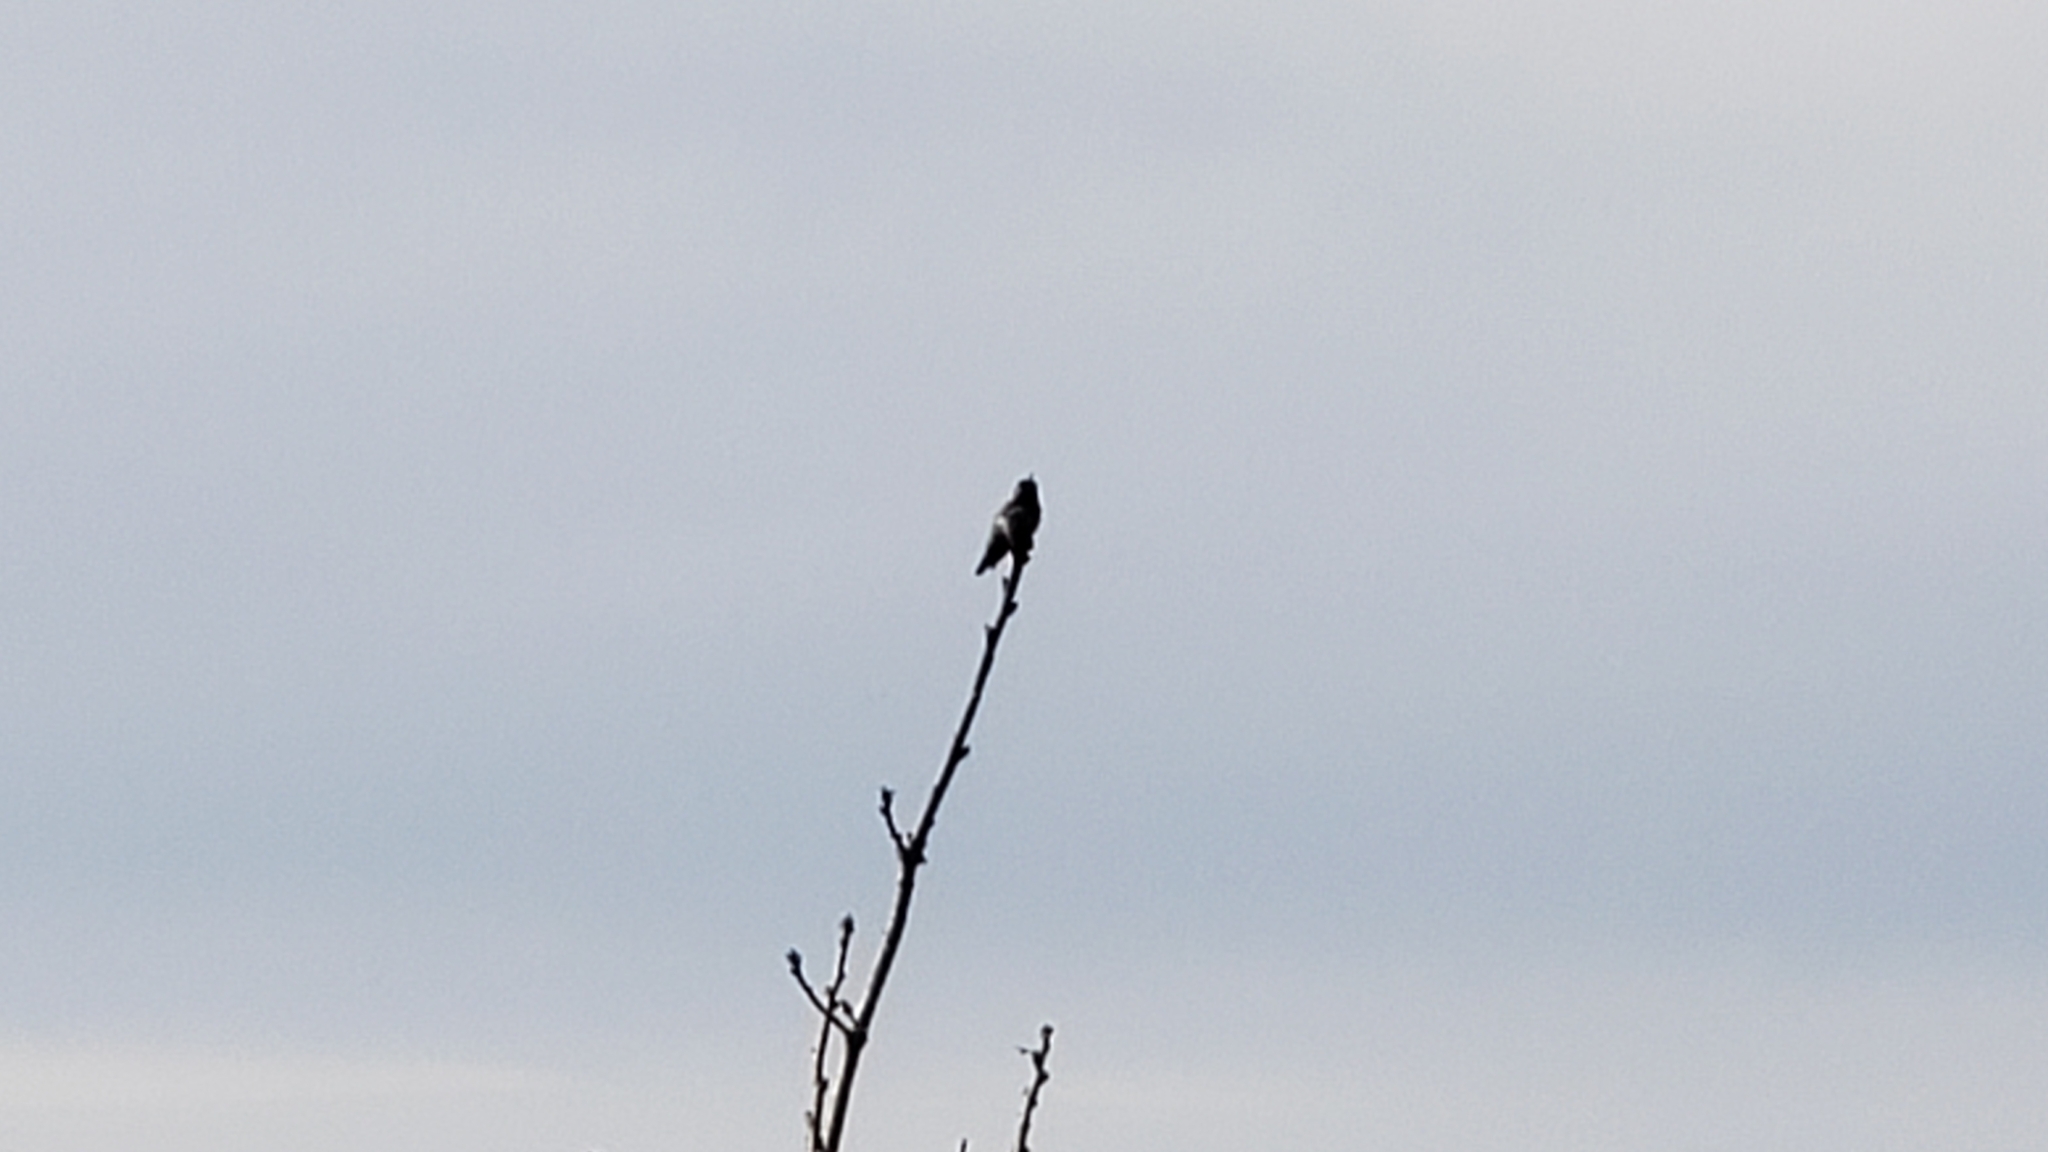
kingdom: Animalia
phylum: Chordata
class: Aves
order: Apodiformes
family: Trochilidae
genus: Calypte
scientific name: Calypte anna
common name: Anna's hummingbird
